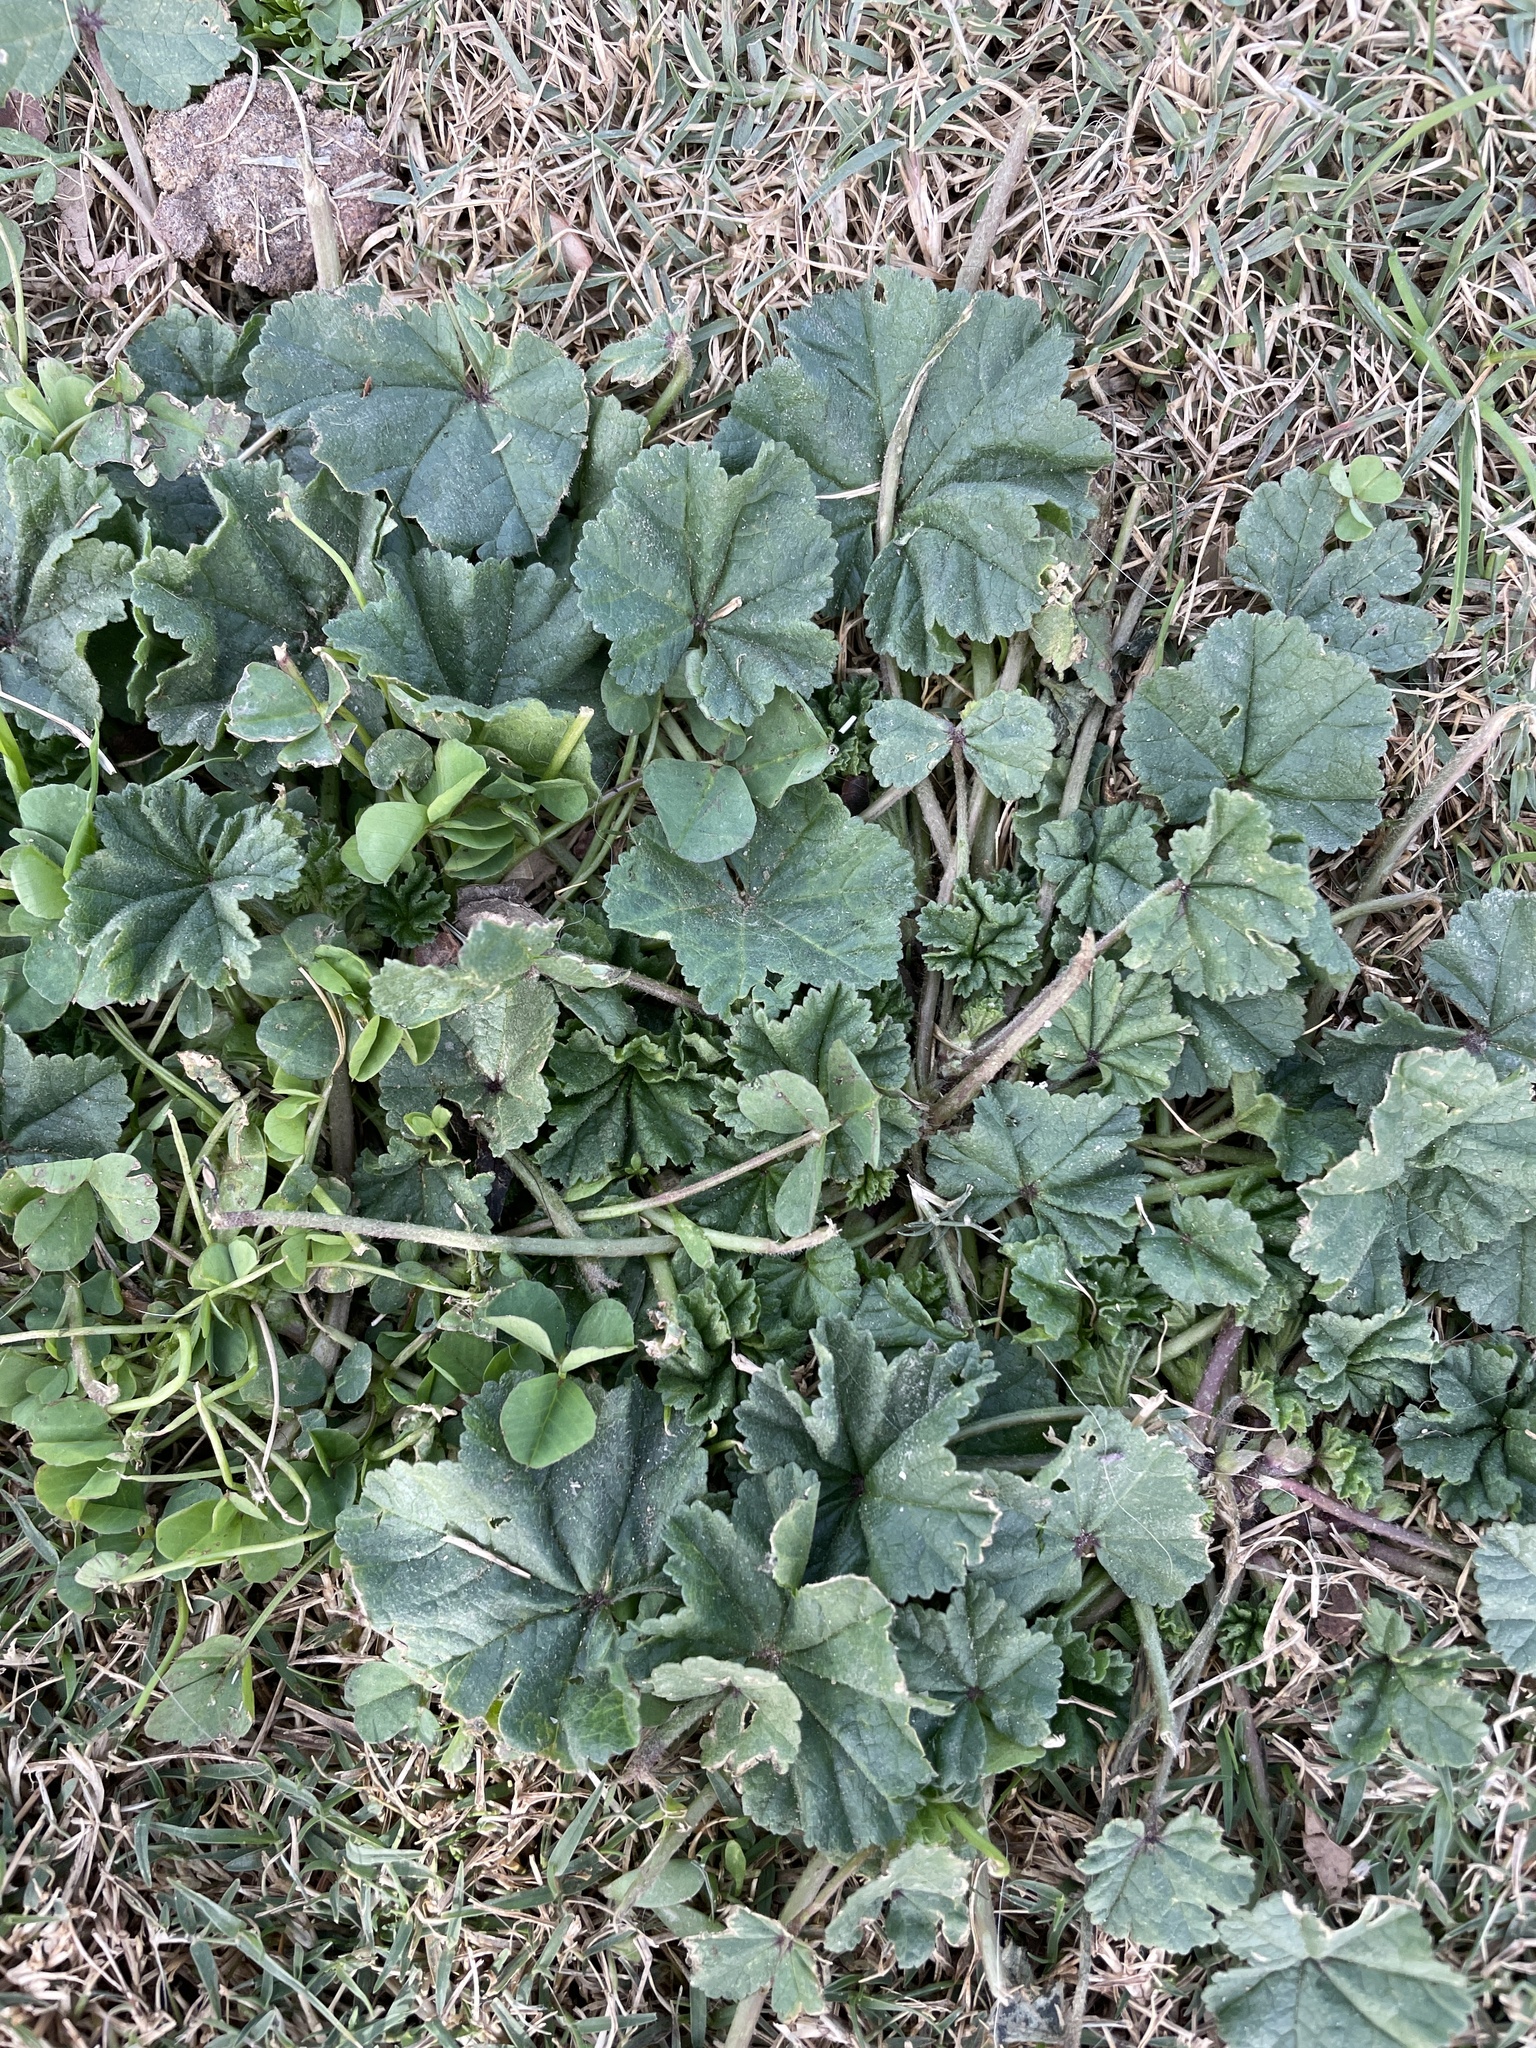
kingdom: Plantae
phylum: Tracheophyta
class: Magnoliopsida
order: Malvales
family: Malvaceae
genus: Malva
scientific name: Malva
